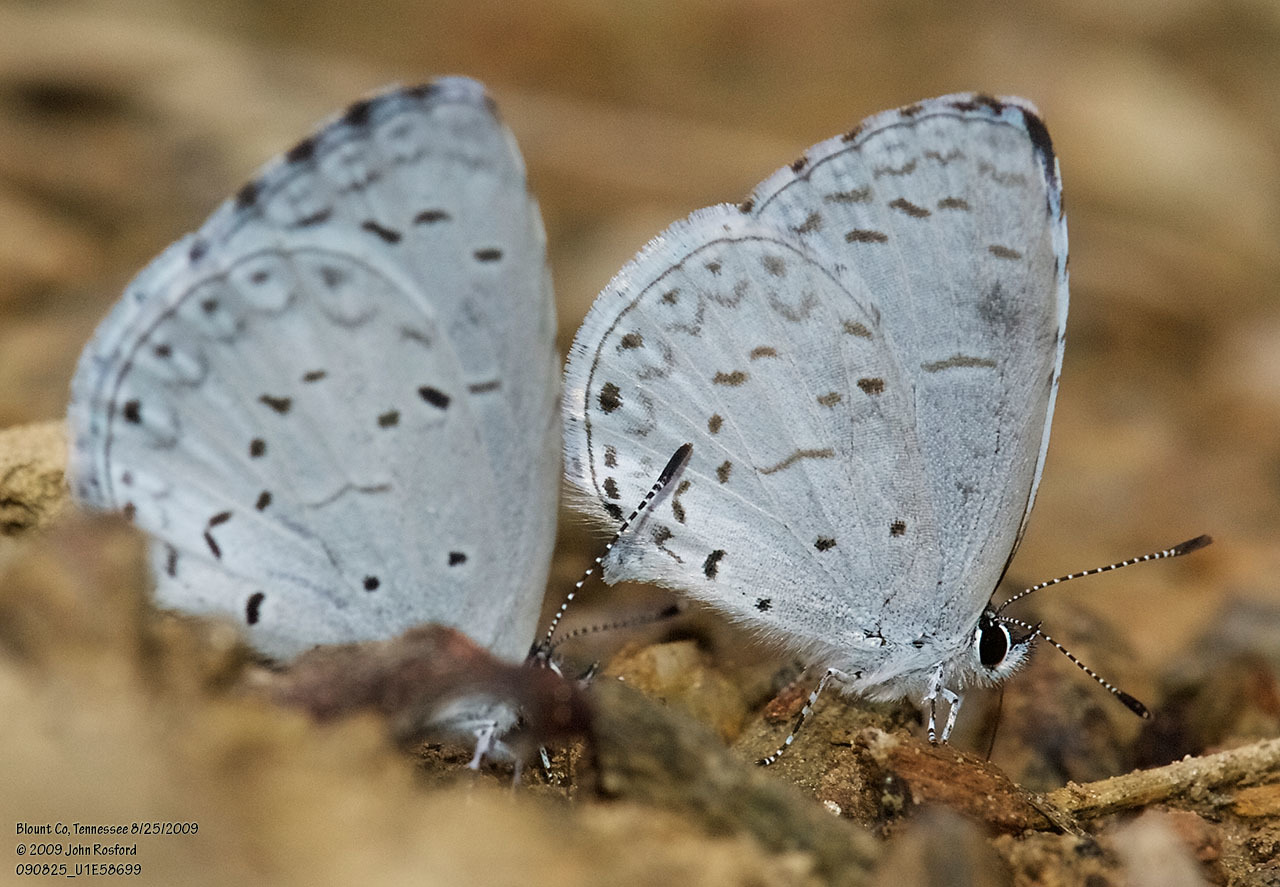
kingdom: Animalia
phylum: Arthropoda
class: Insecta
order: Lepidoptera
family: Lycaenidae
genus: Cyaniris
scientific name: Cyaniris neglecta
